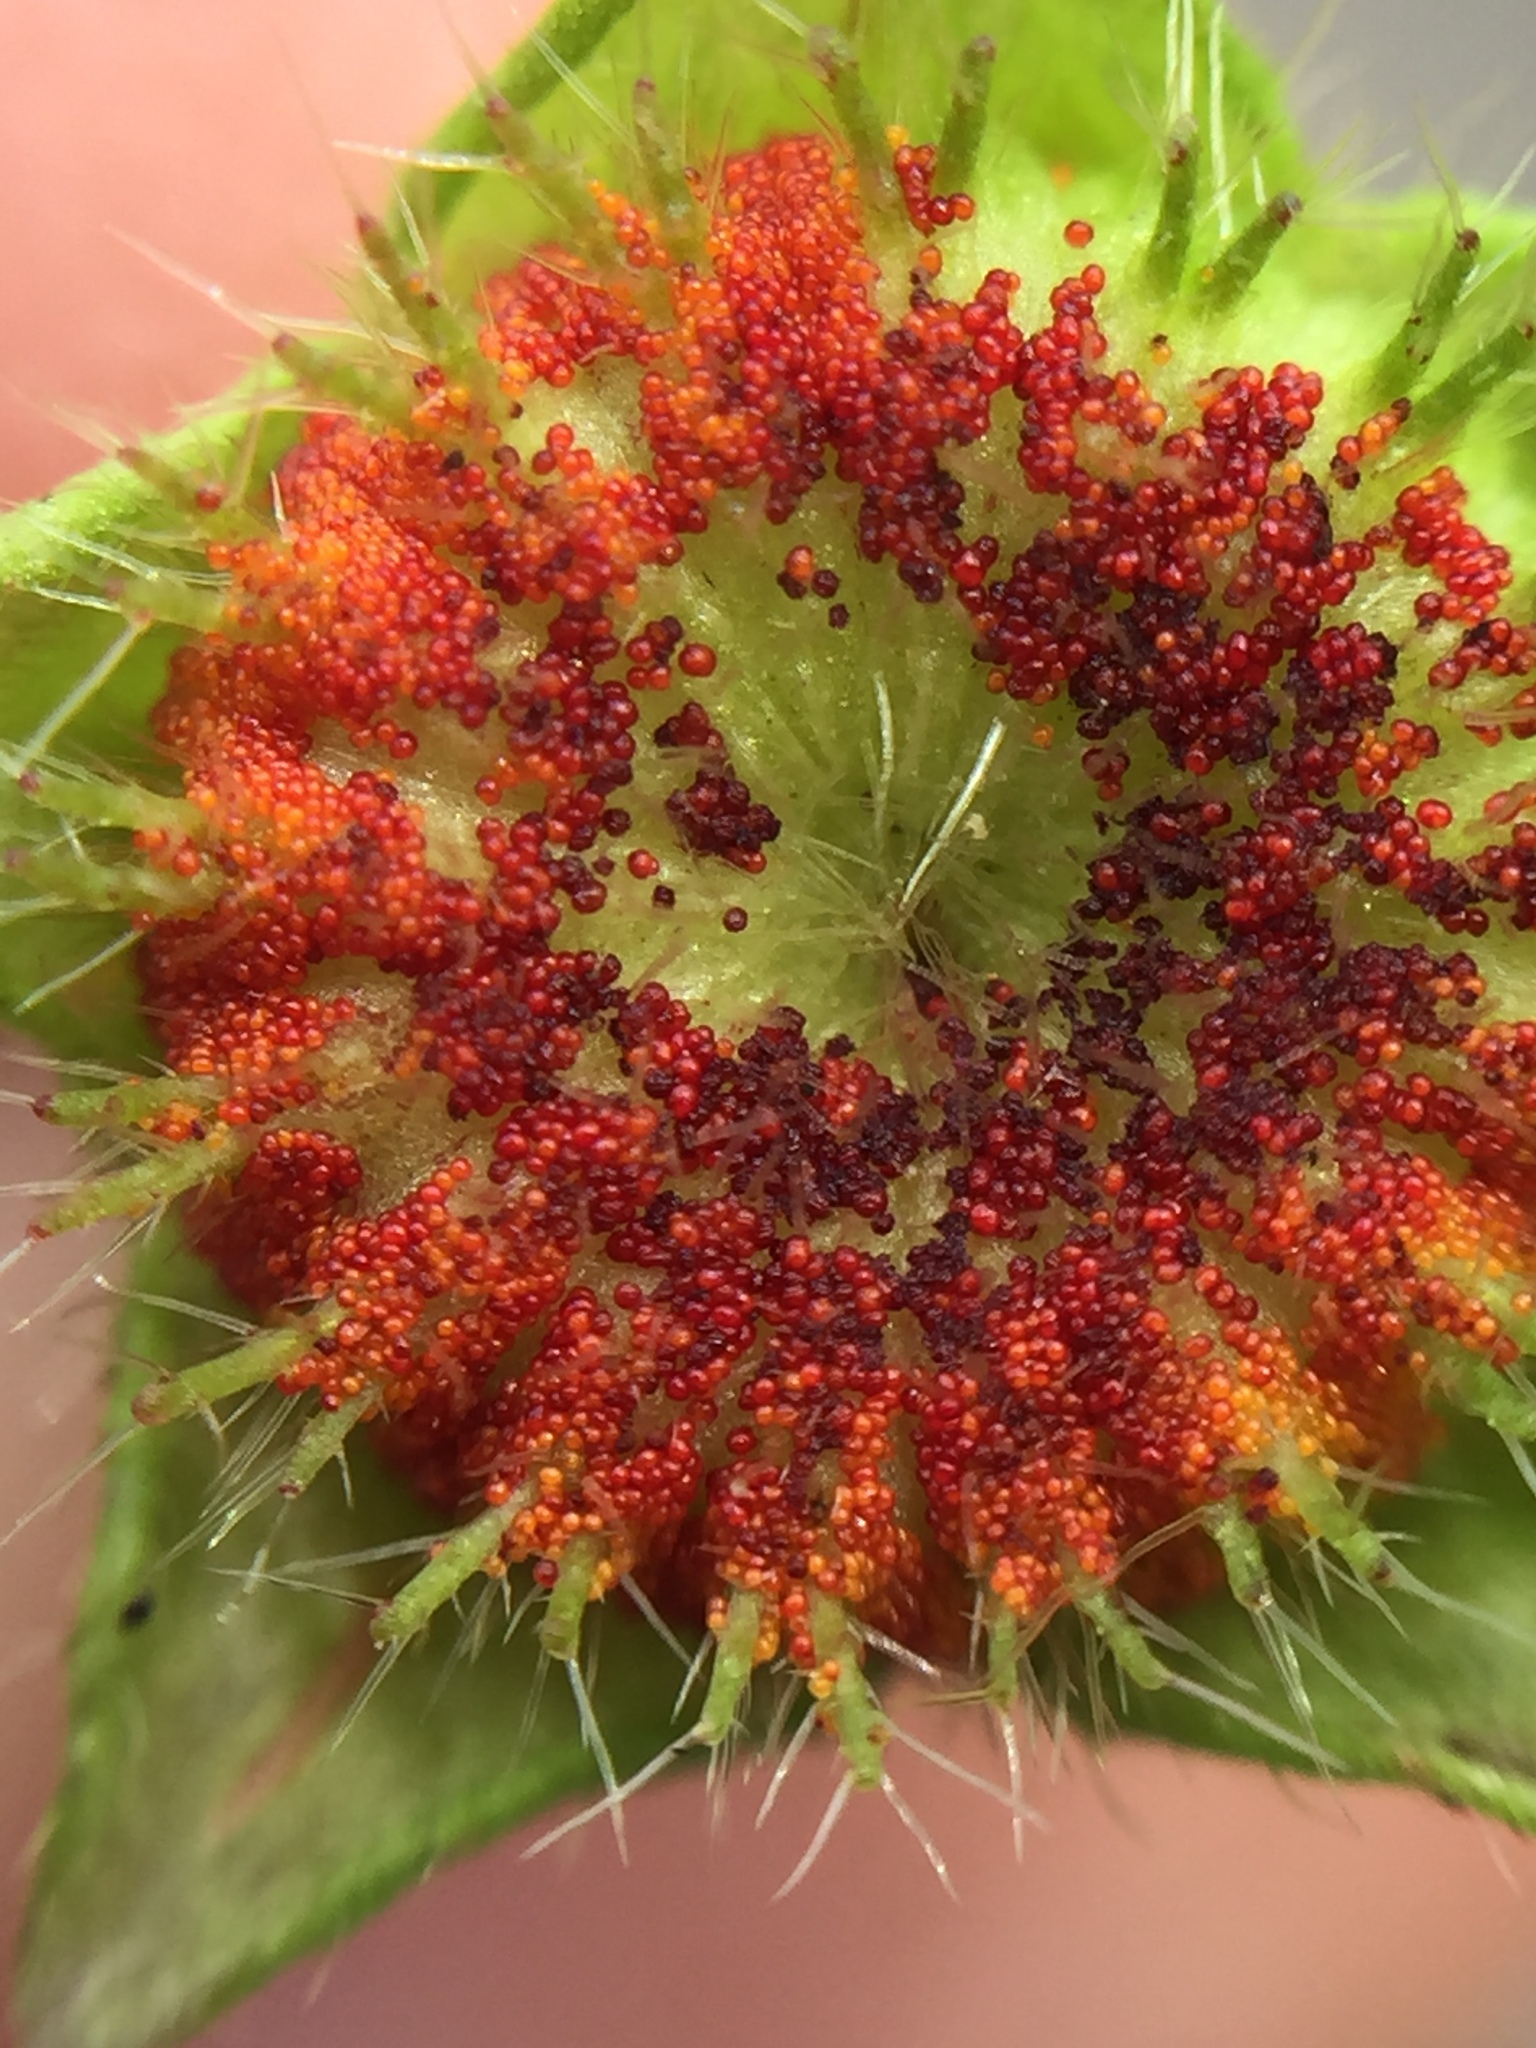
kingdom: Fungi
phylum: Chytridiomycota
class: Chytridiomycetes
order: Chytridiales
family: Synchytriaceae
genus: Synchytrium
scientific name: Synchytrium australe
